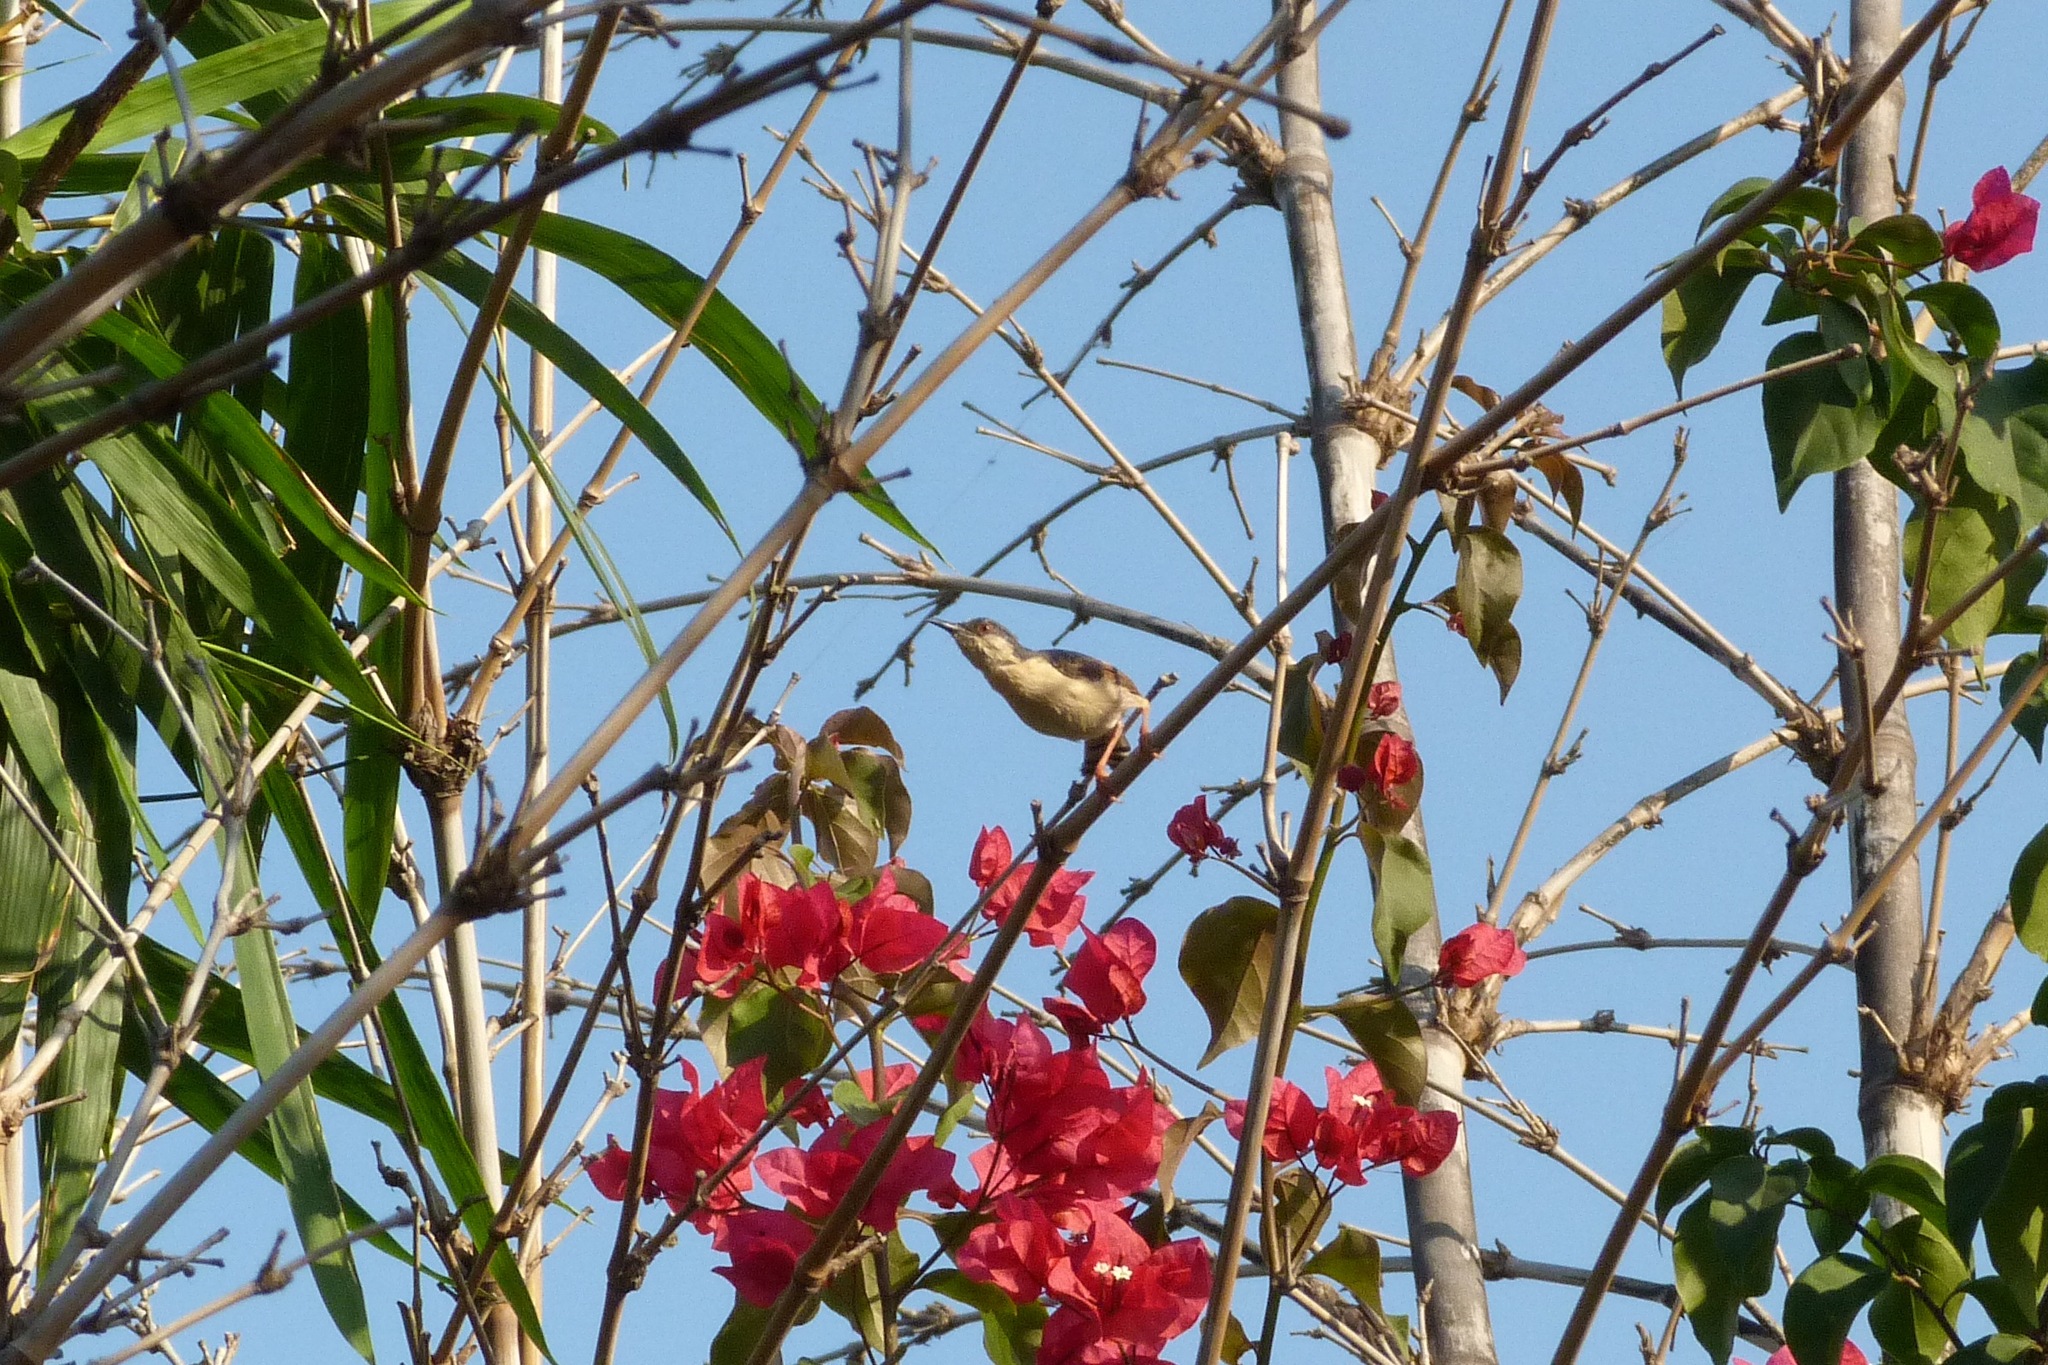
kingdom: Animalia
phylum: Chordata
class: Aves
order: Passeriformes
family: Cisticolidae
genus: Prinia
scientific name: Prinia socialis
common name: Ashy prinia
